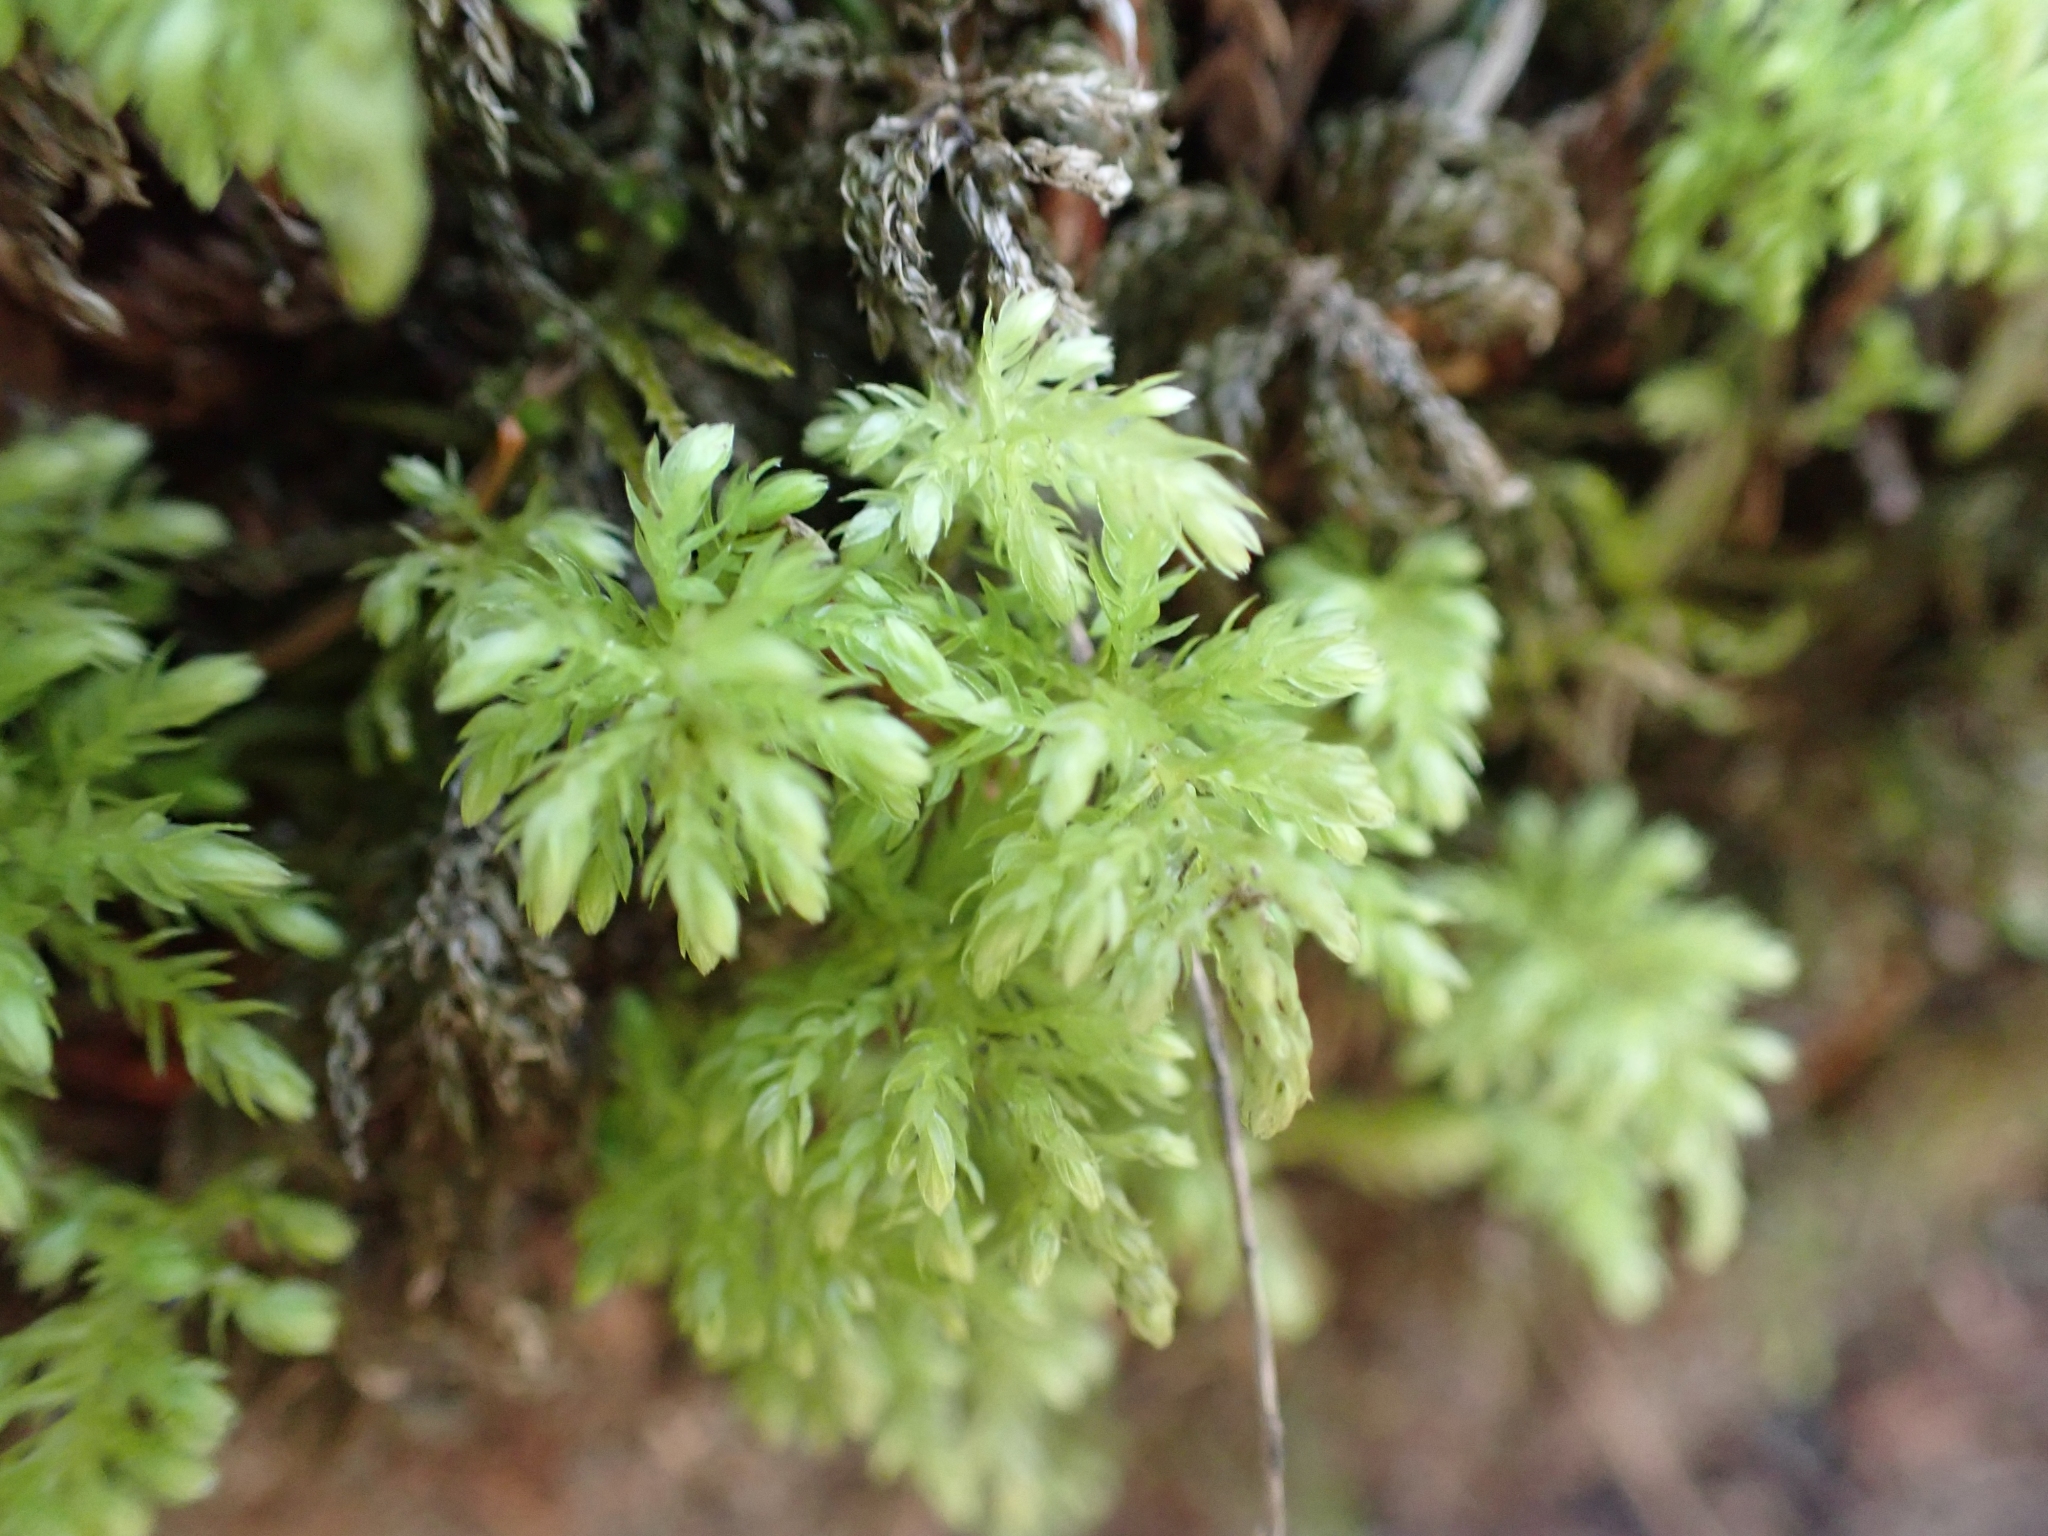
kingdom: Plantae
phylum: Bryophyta
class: Bryopsida
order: Bryales
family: Mniaceae
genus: Leucolepis
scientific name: Leucolepis acanthoneura
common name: Leucolepis umbrella moss
